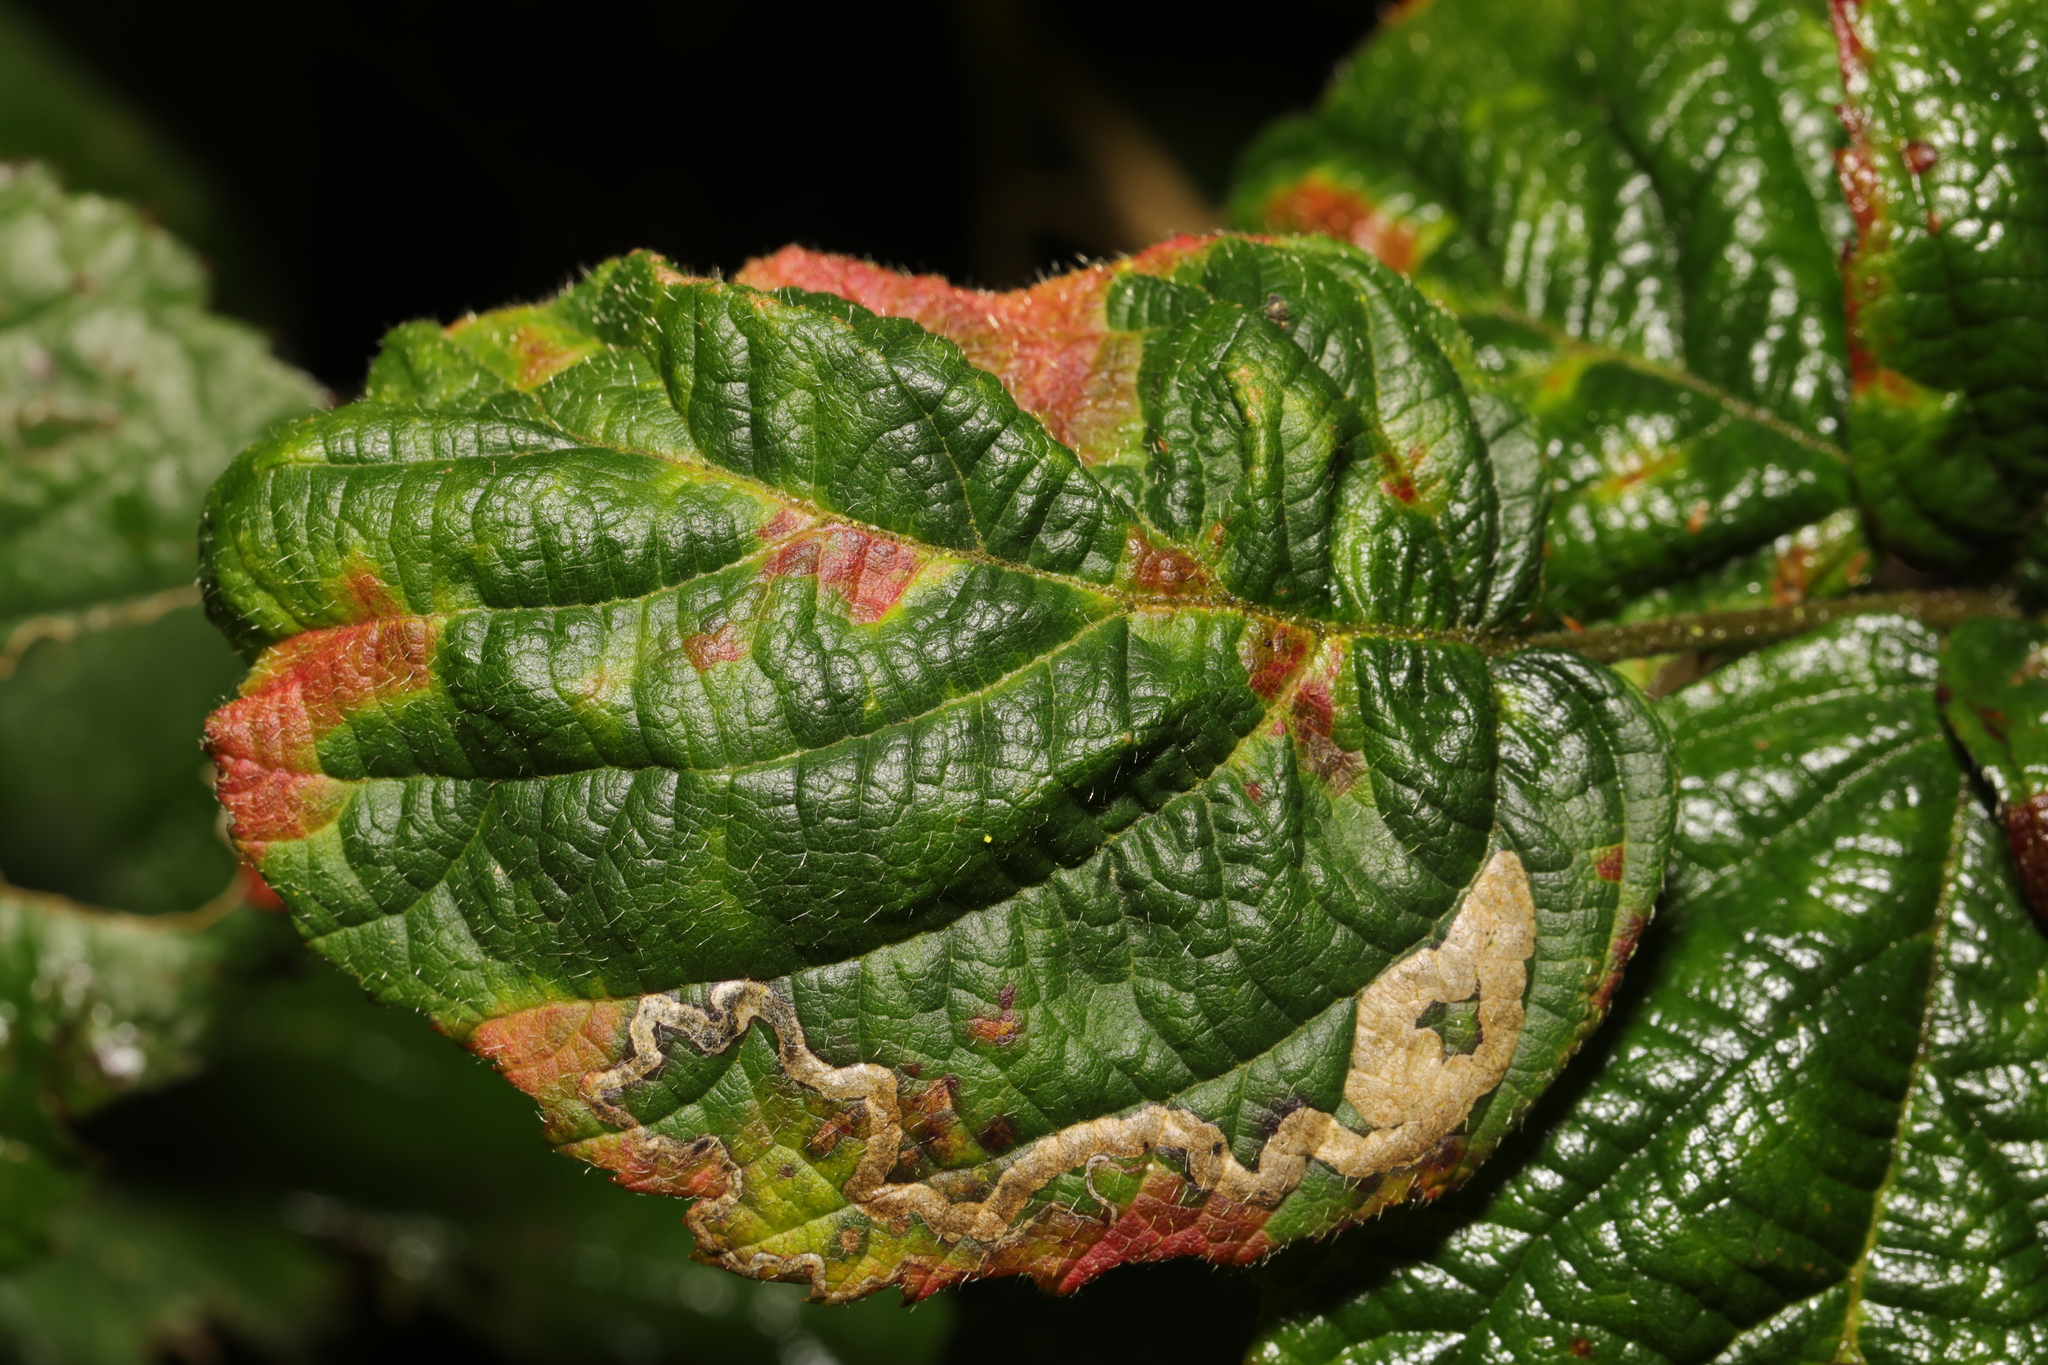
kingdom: Animalia
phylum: Arthropoda
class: Insecta
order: Lepidoptera
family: Nepticulidae
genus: Stigmella
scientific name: Stigmella aurella
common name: Golden pigmy
